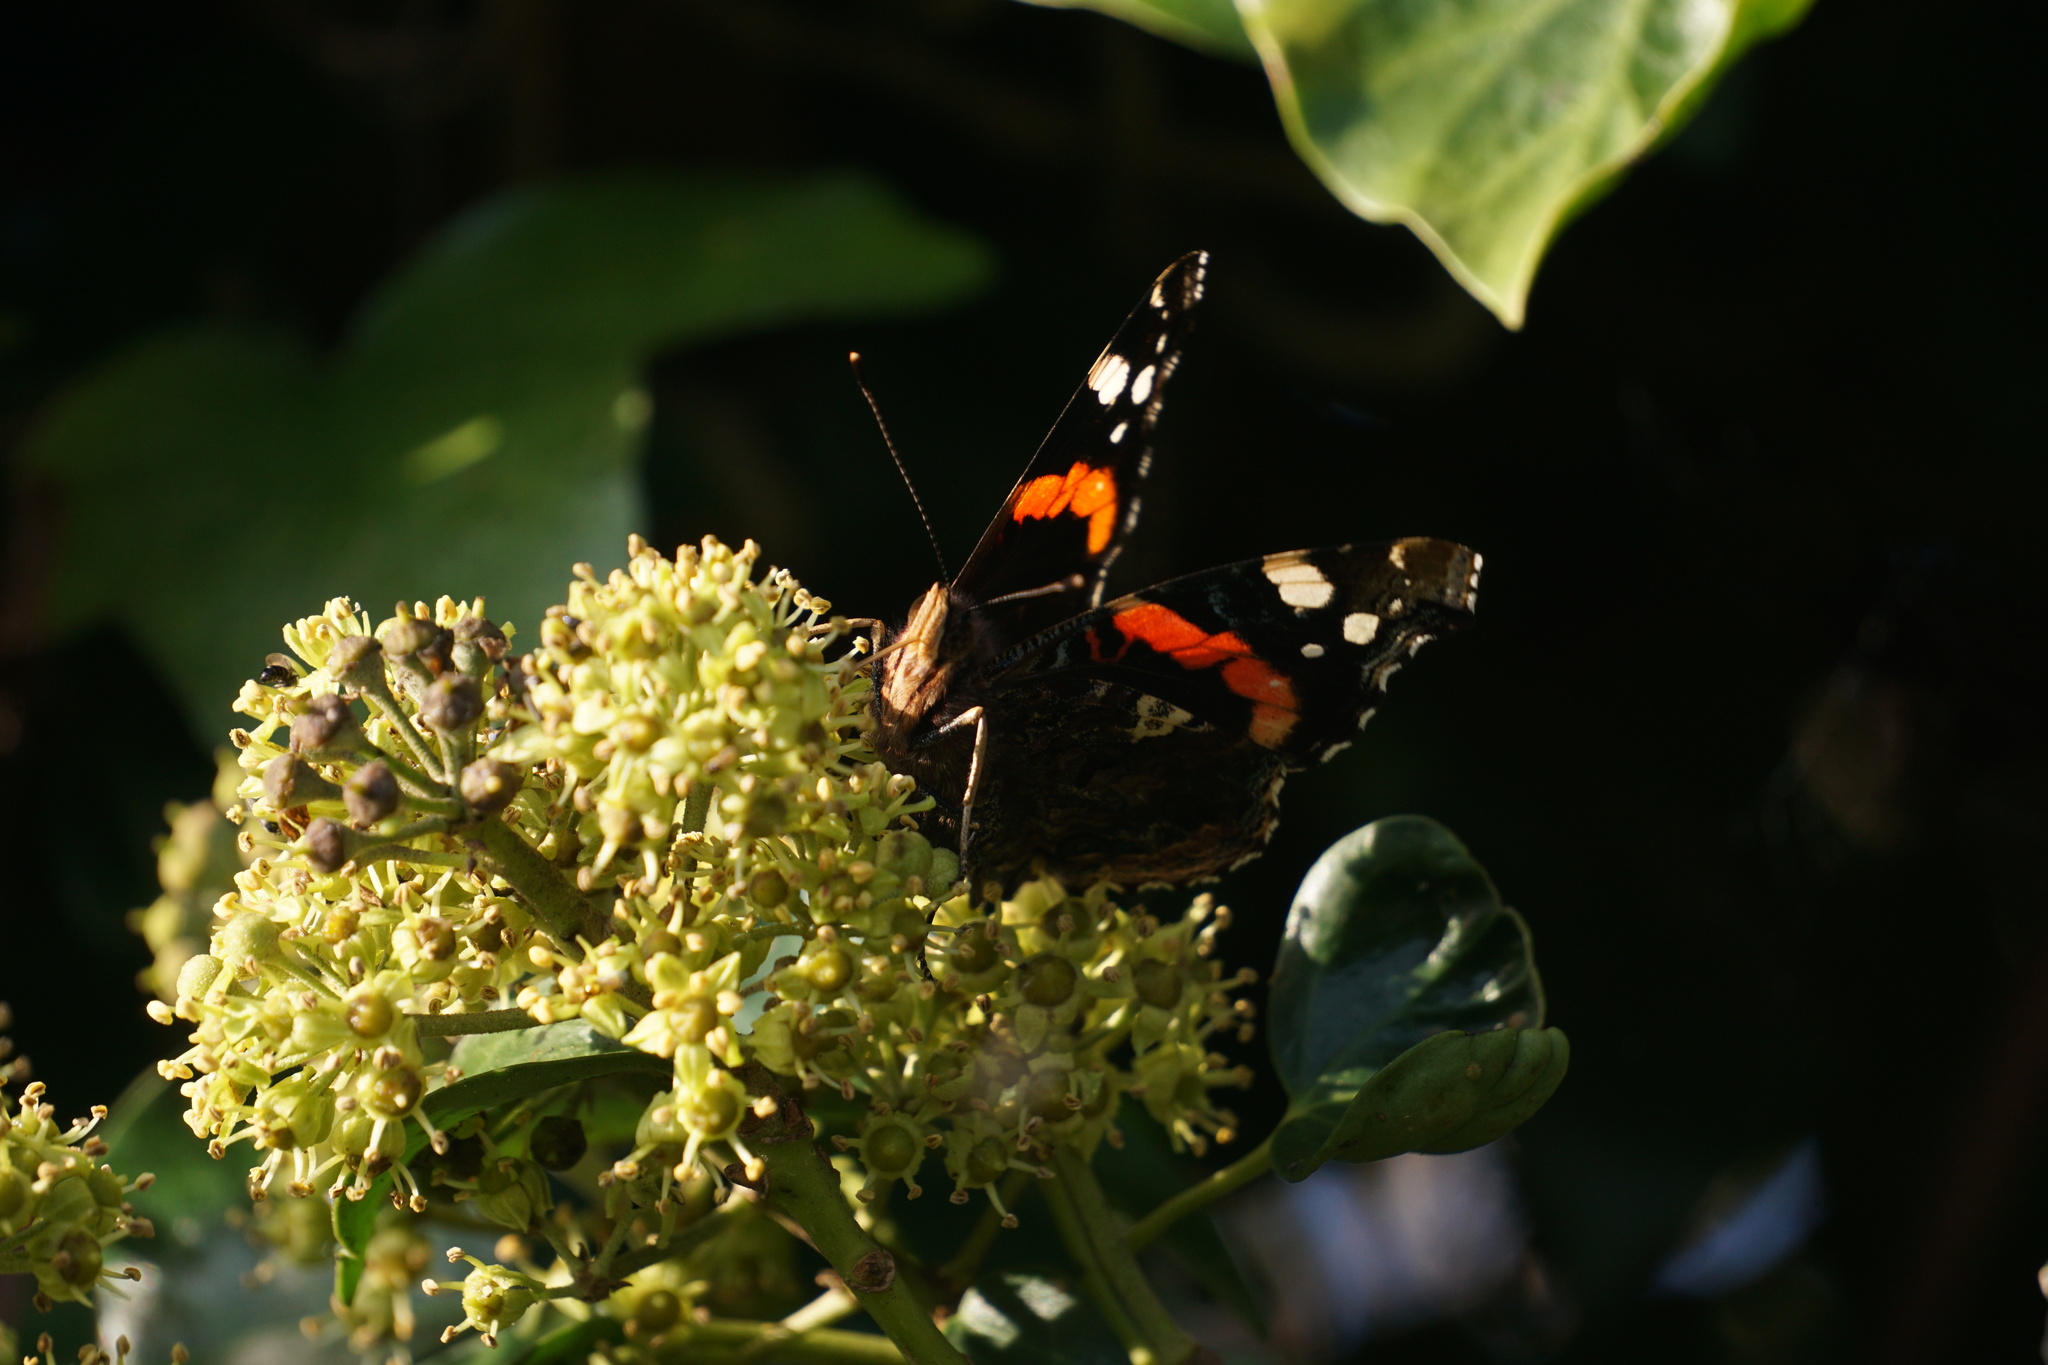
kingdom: Animalia
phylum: Arthropoda
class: Insecta
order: Lepidoptera
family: Nymphalidae
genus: Vanessa
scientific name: Vanessa atalanta
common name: Red admiral
